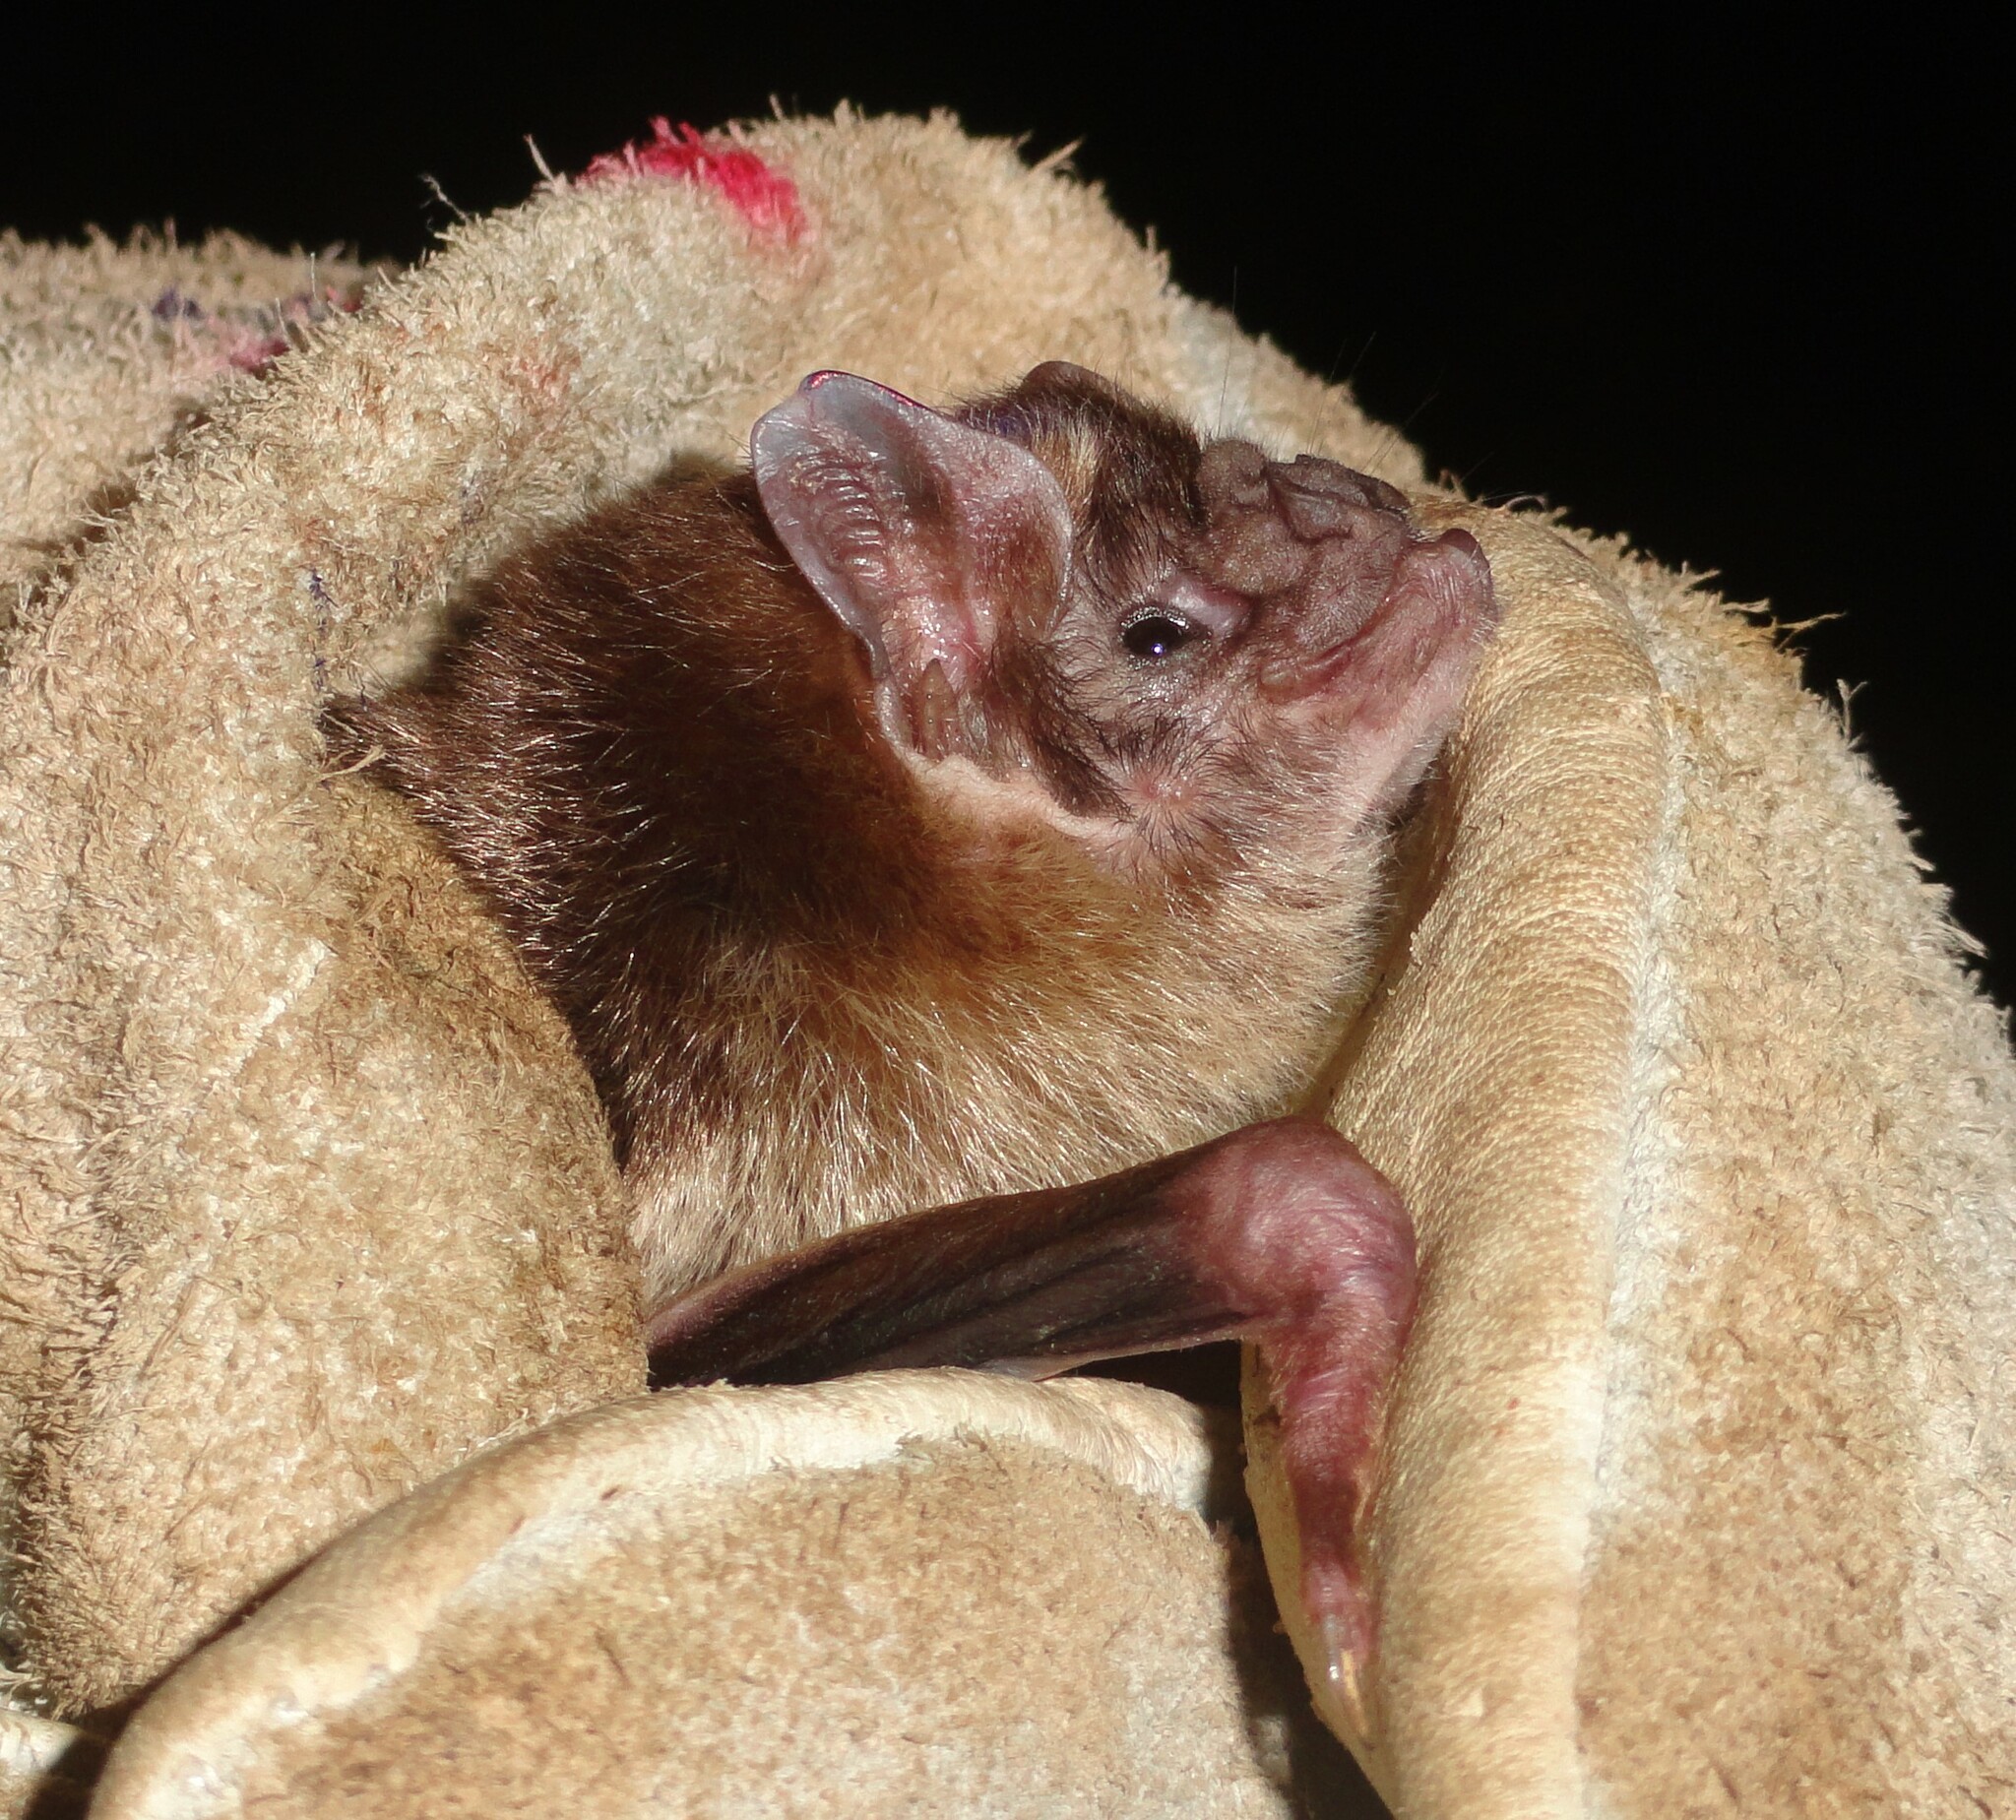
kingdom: Animalia
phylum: Chordata
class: Mammalia
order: Chiroptera
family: Phyllostomidae
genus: Desmodus
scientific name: Desmodus rotundus
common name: Common vampire bat
